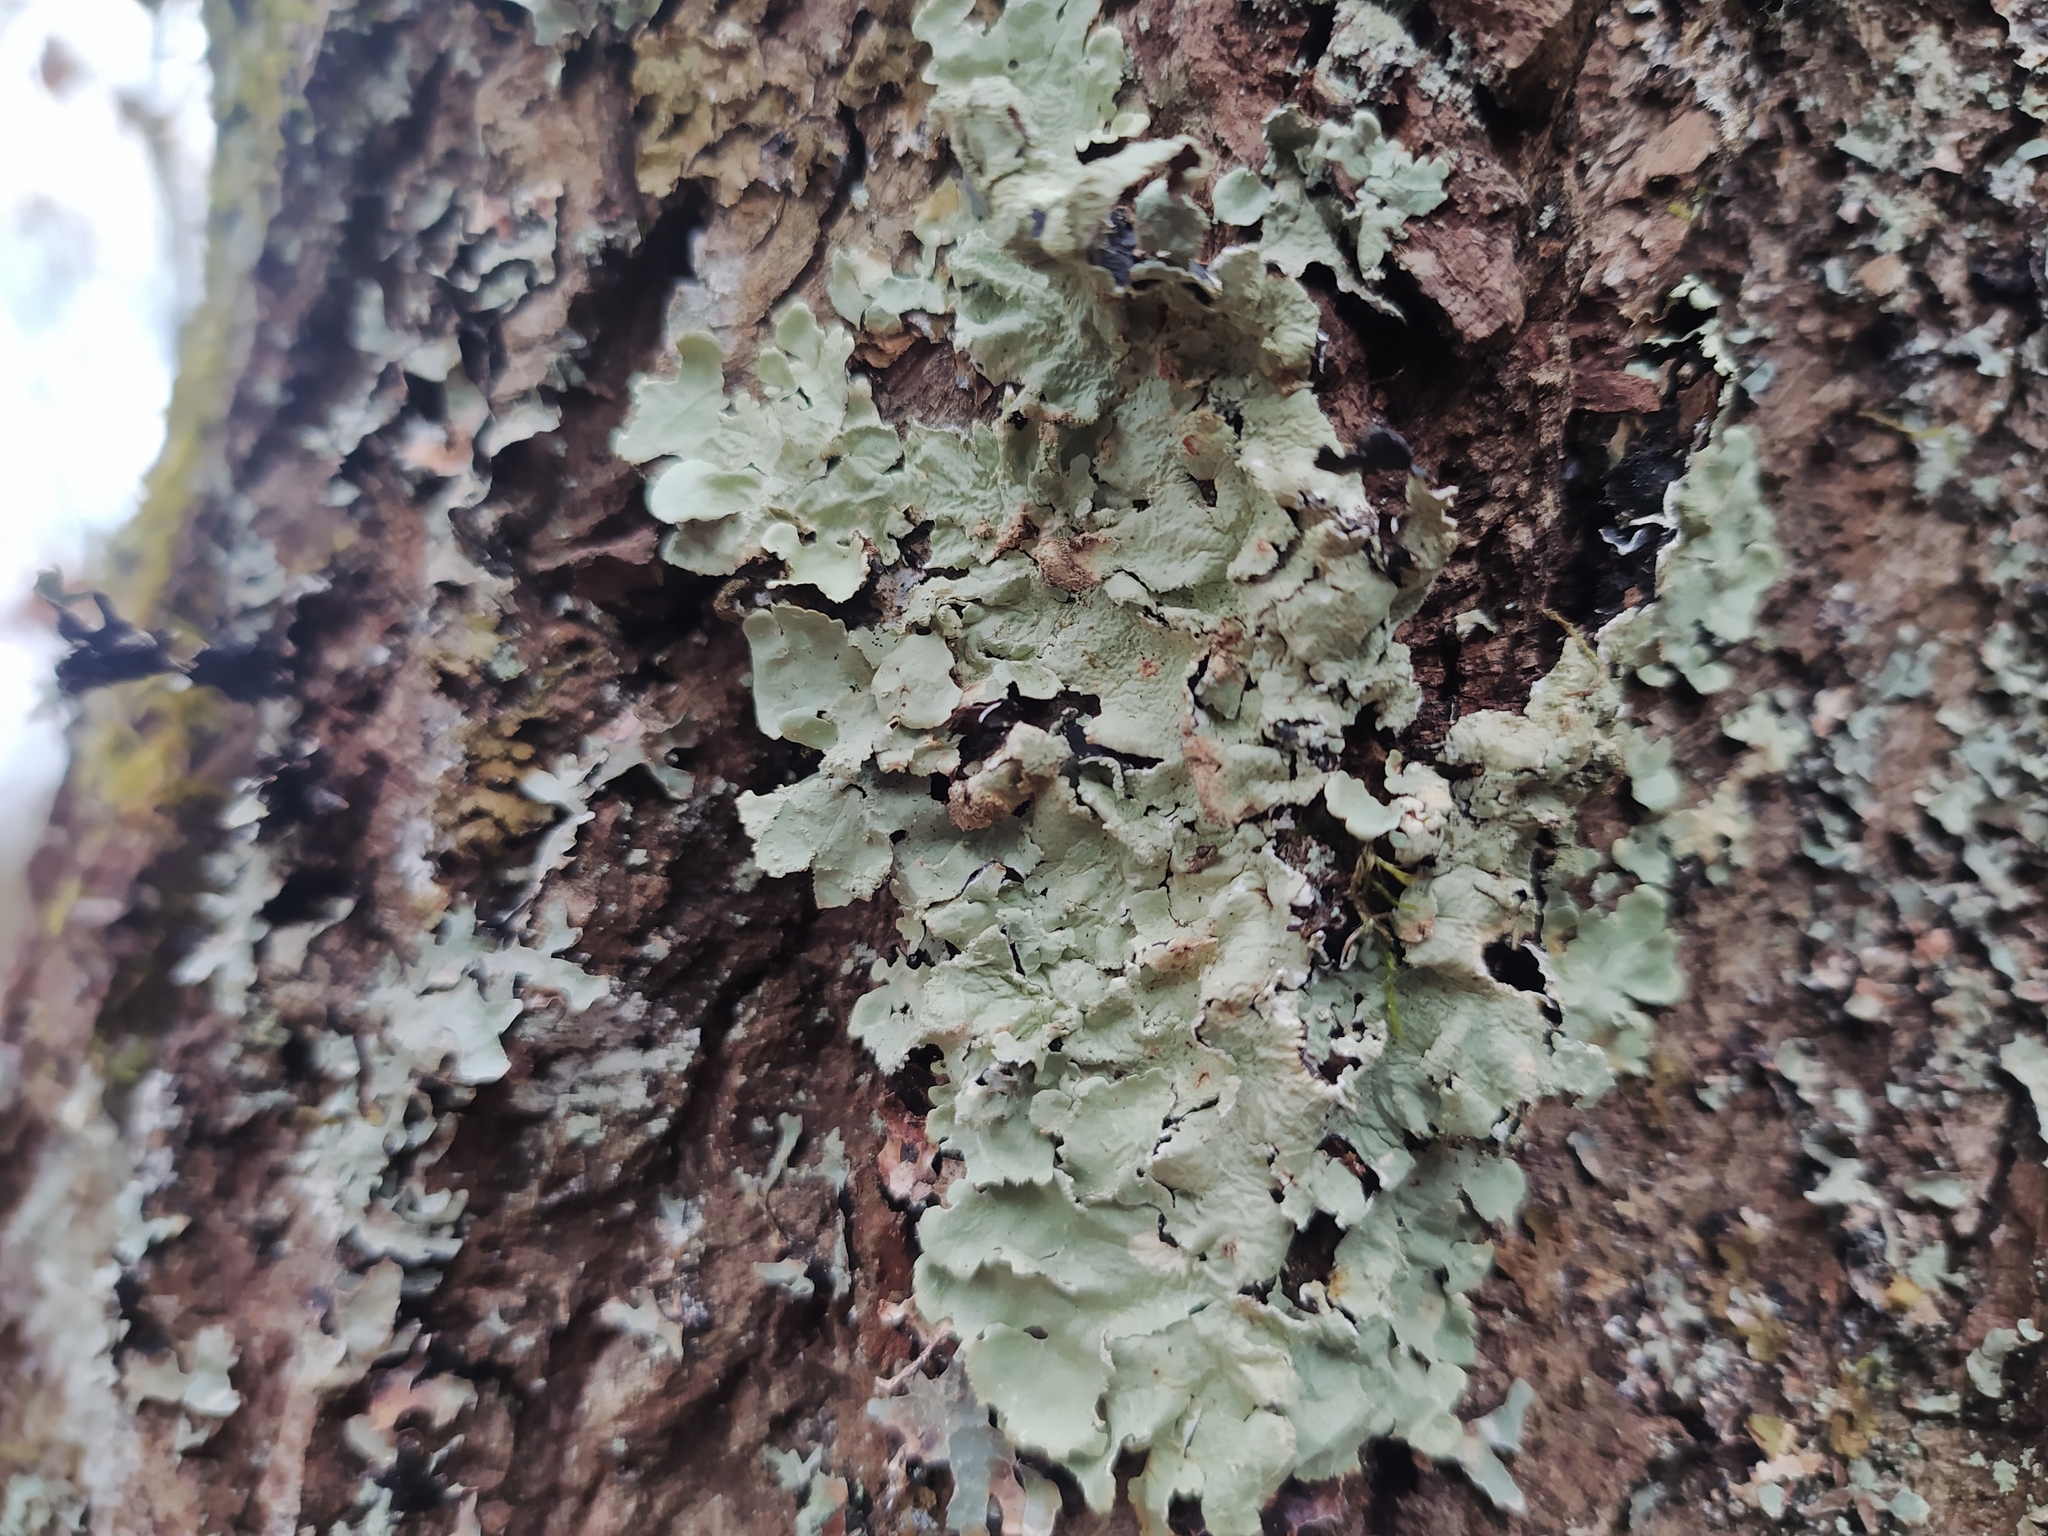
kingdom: Fungi
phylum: Ascomycota
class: Lecanoromycetes
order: Lecanorales
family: Parmeliaceae
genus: Flavoparmelia
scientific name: Flavoparmelia caperata
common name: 40-mile per hour lichen
